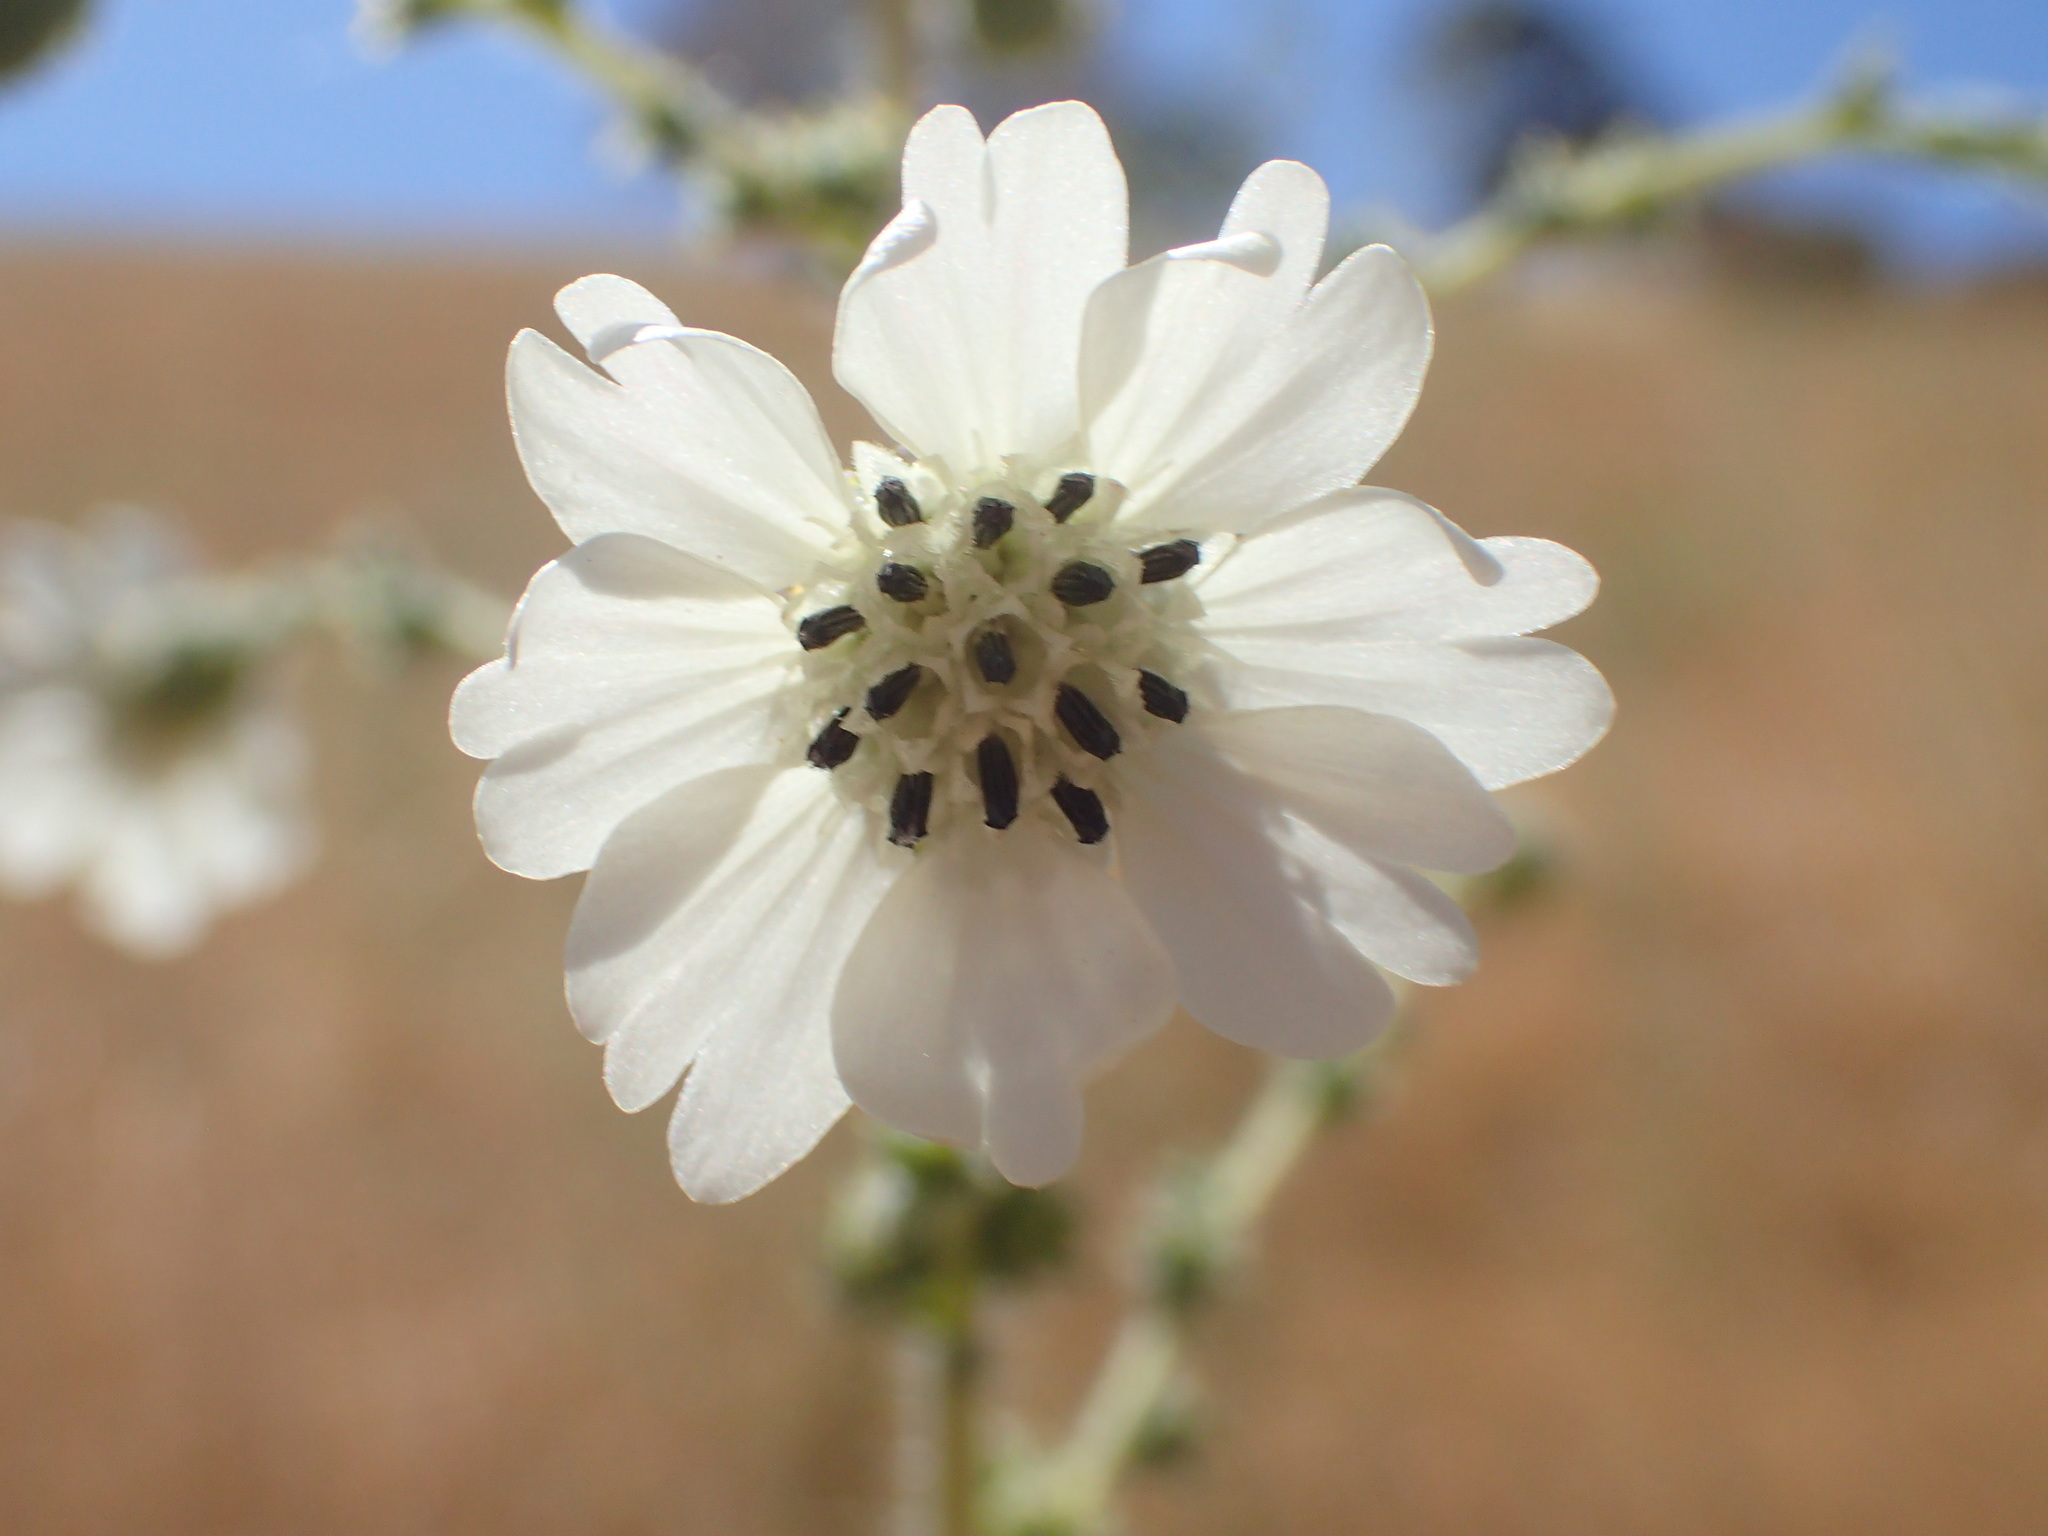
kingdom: Plantae
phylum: Tracheophyta
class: Magnoliopsida
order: Asterales
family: Asteraceae
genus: Blepharizonia
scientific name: Blepharizonia plumosa
